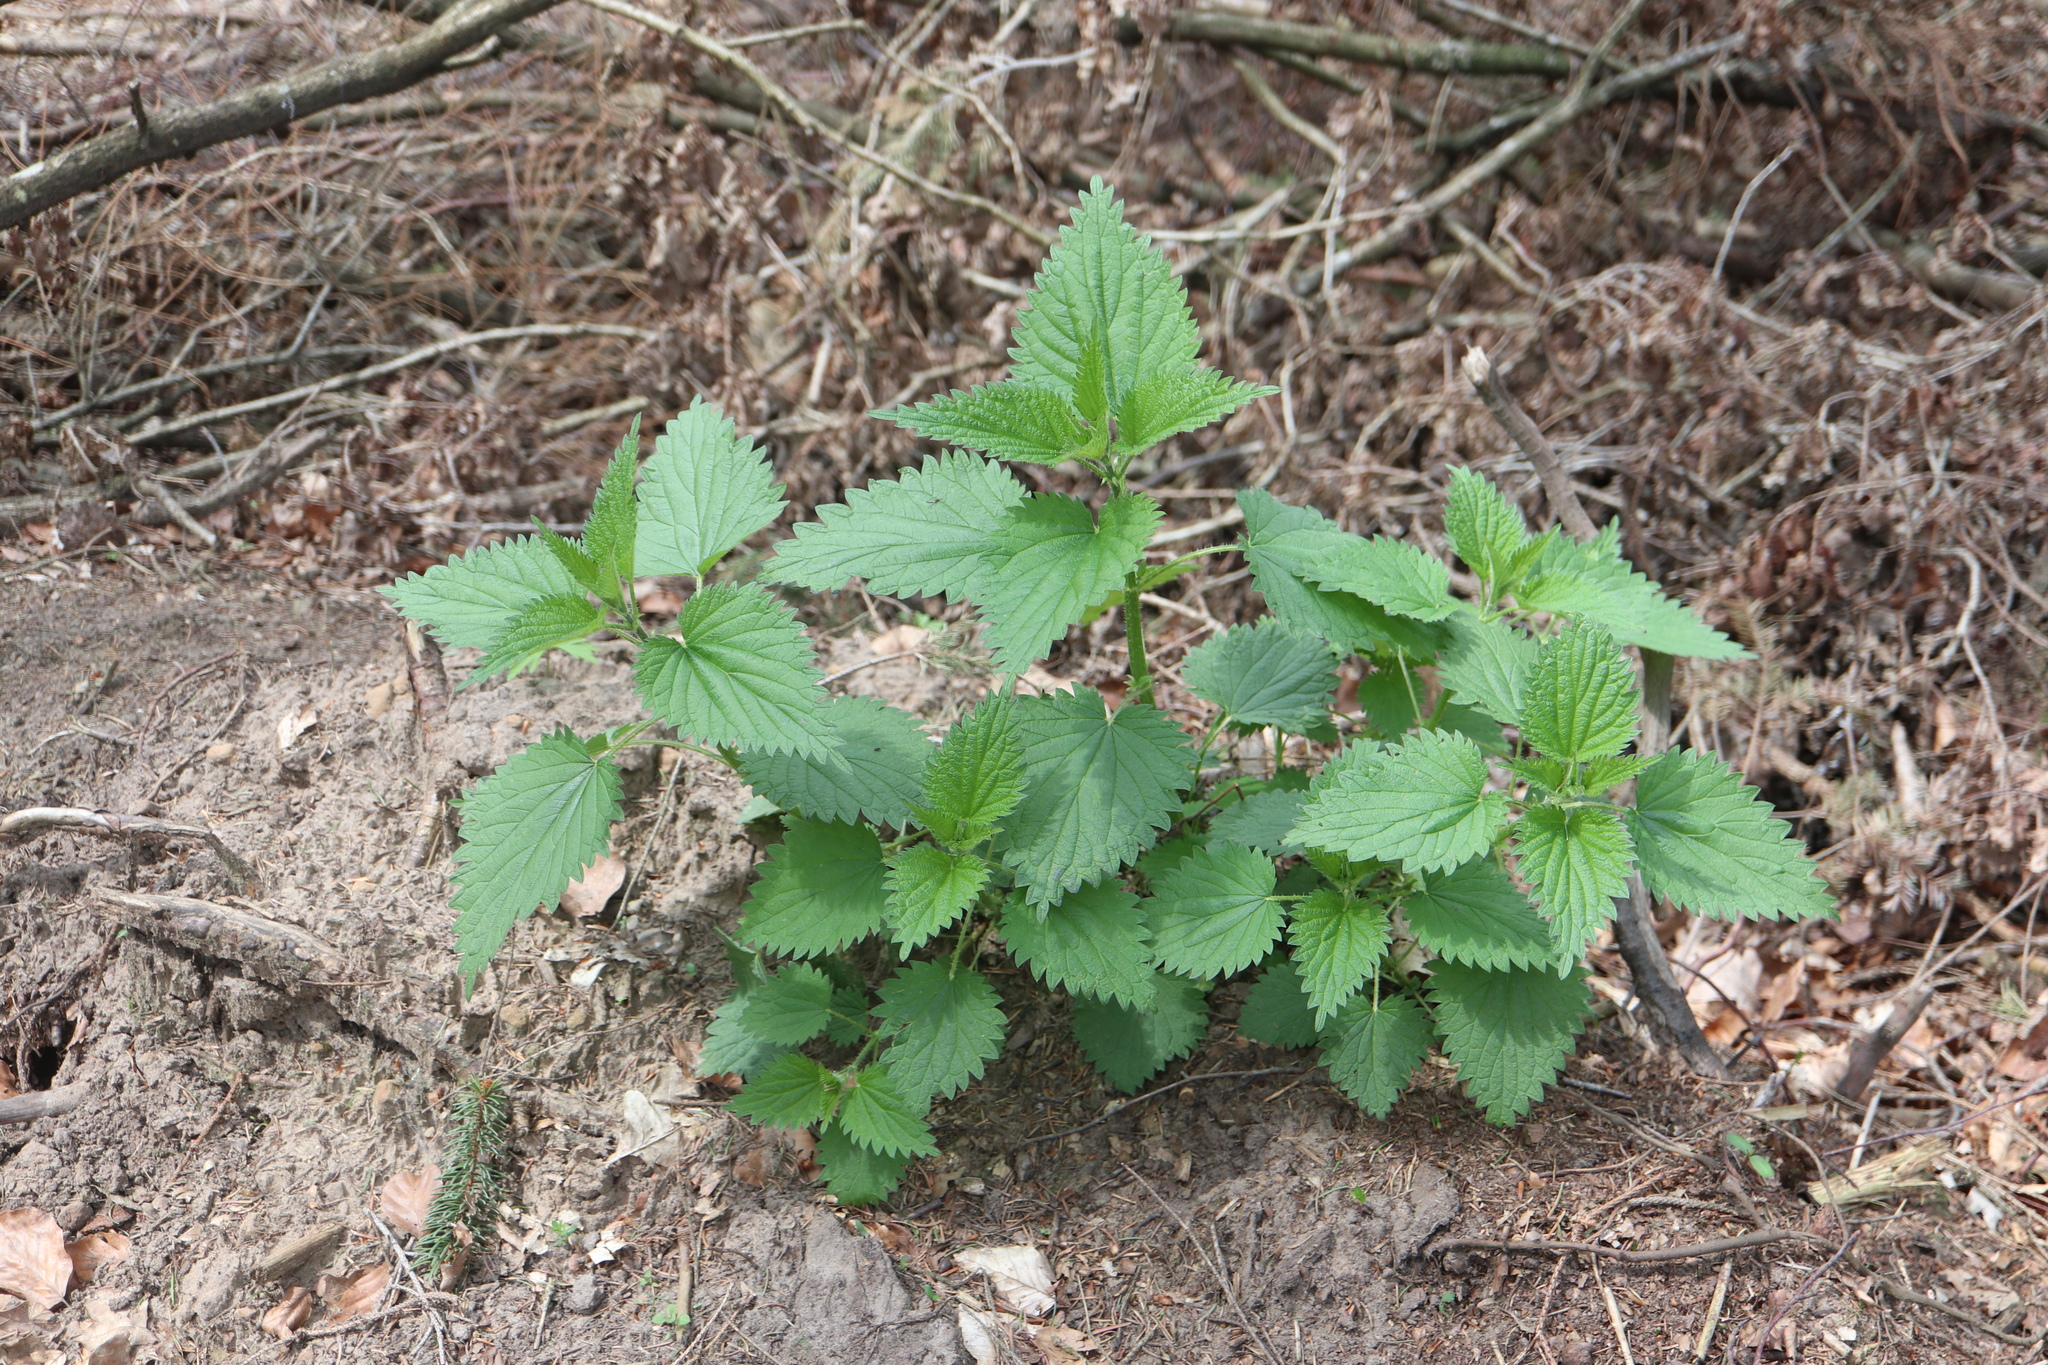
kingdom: Plantae
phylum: Tracheophyta
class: Magnoliopsida
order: Rosales
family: Urticaceae
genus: Urtica
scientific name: Urtica dioica
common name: Common nettle
